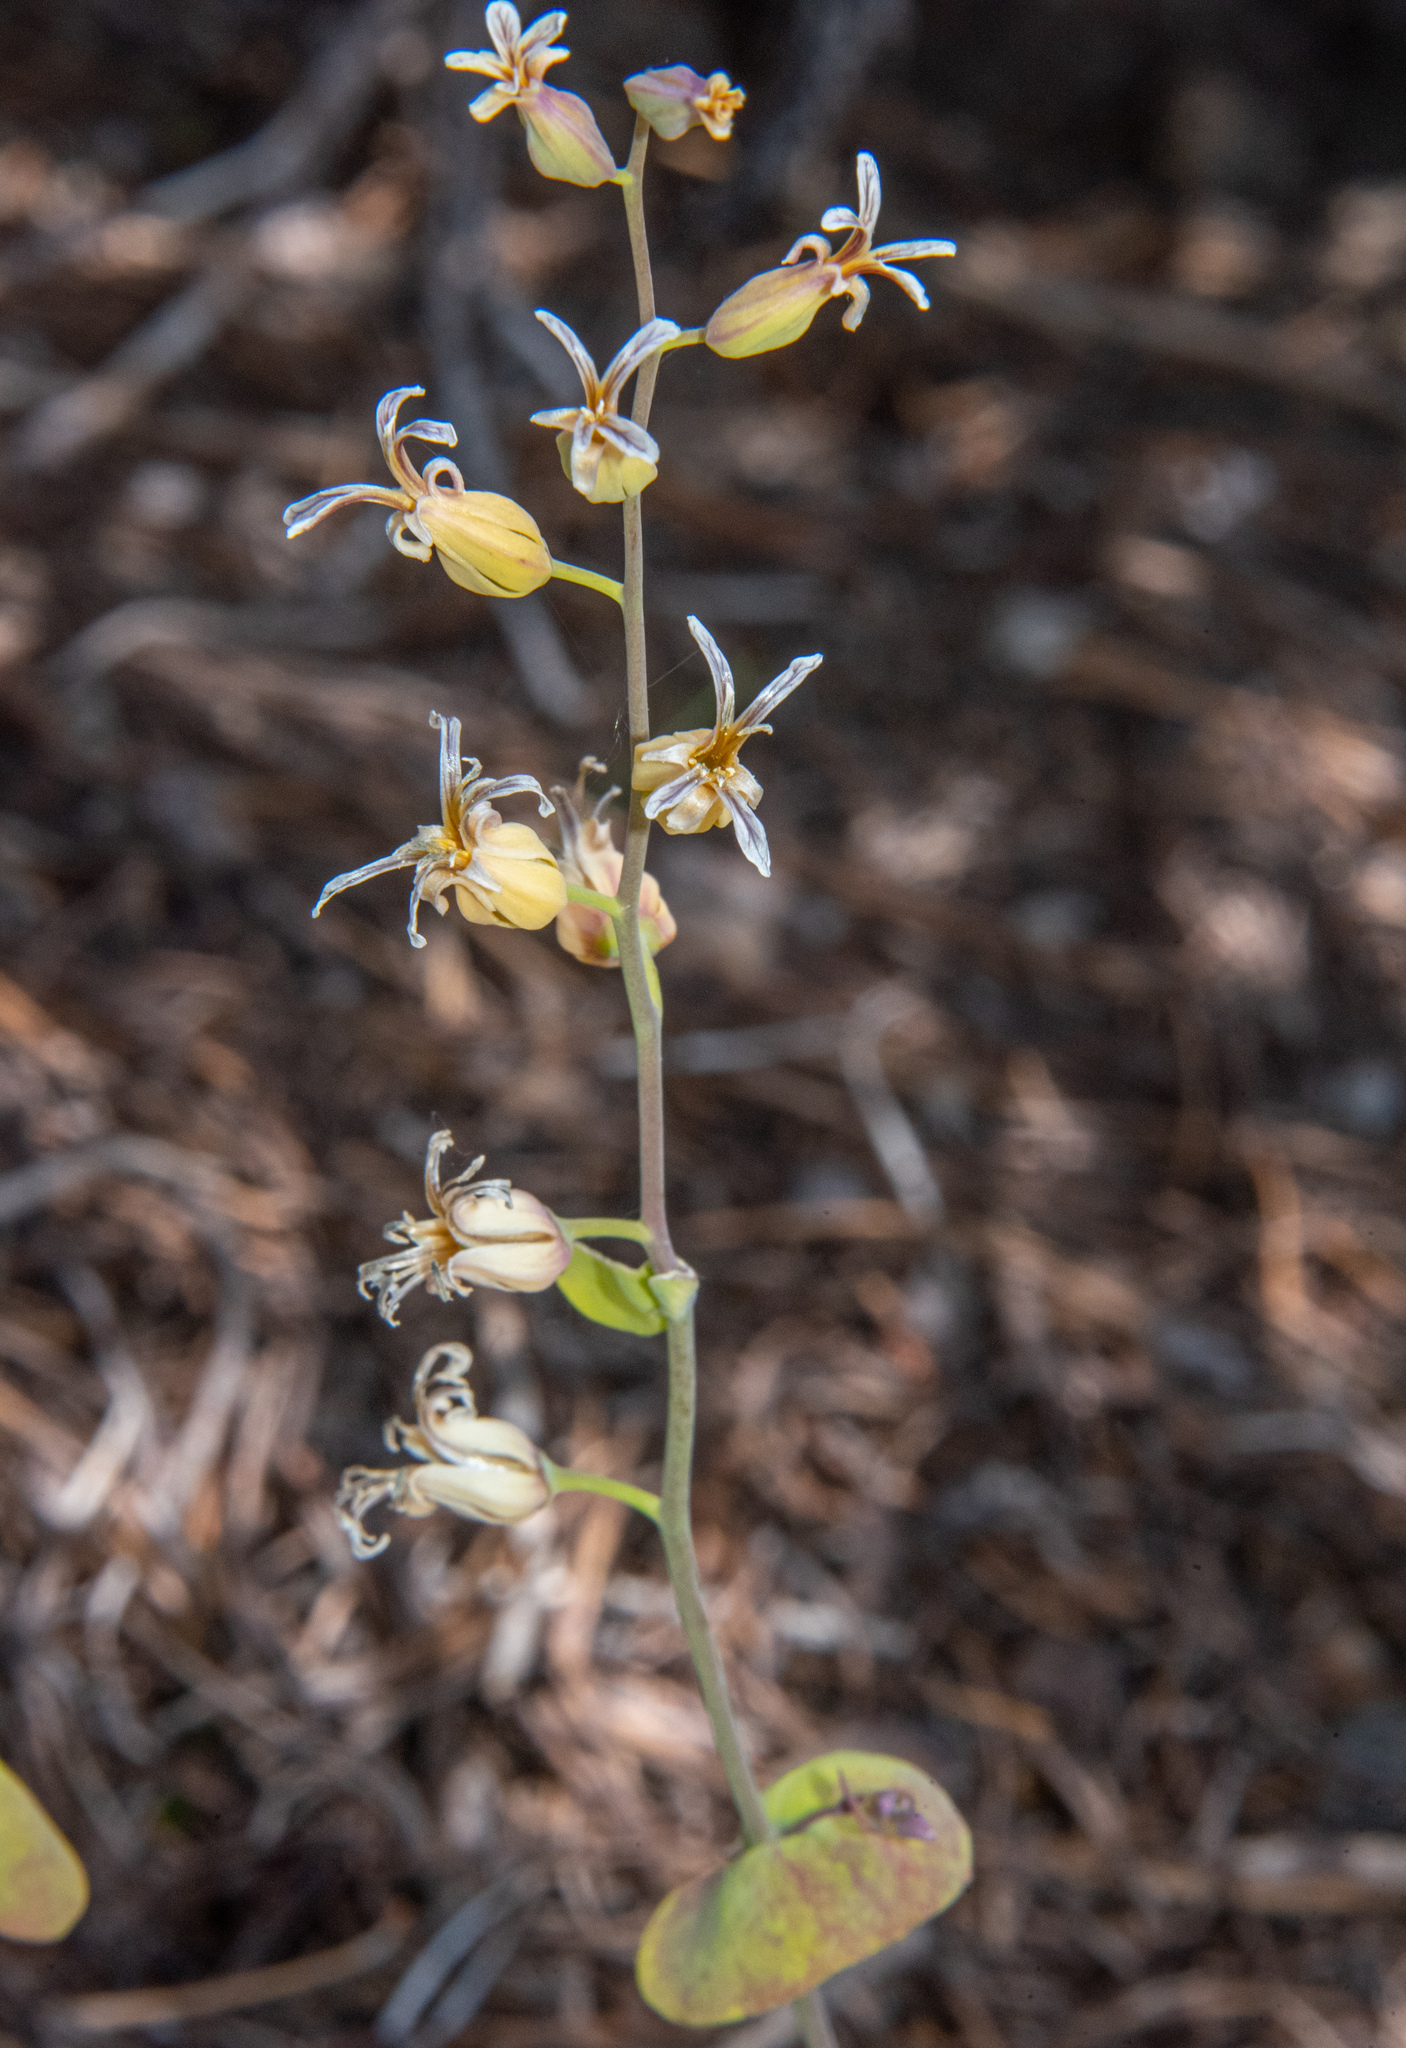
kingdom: Plantae
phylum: Tracheophyta
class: Magnoliopsida
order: Brassicales
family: Brassicaceae
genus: Streptanthus
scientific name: Streptanthus tortuosus
